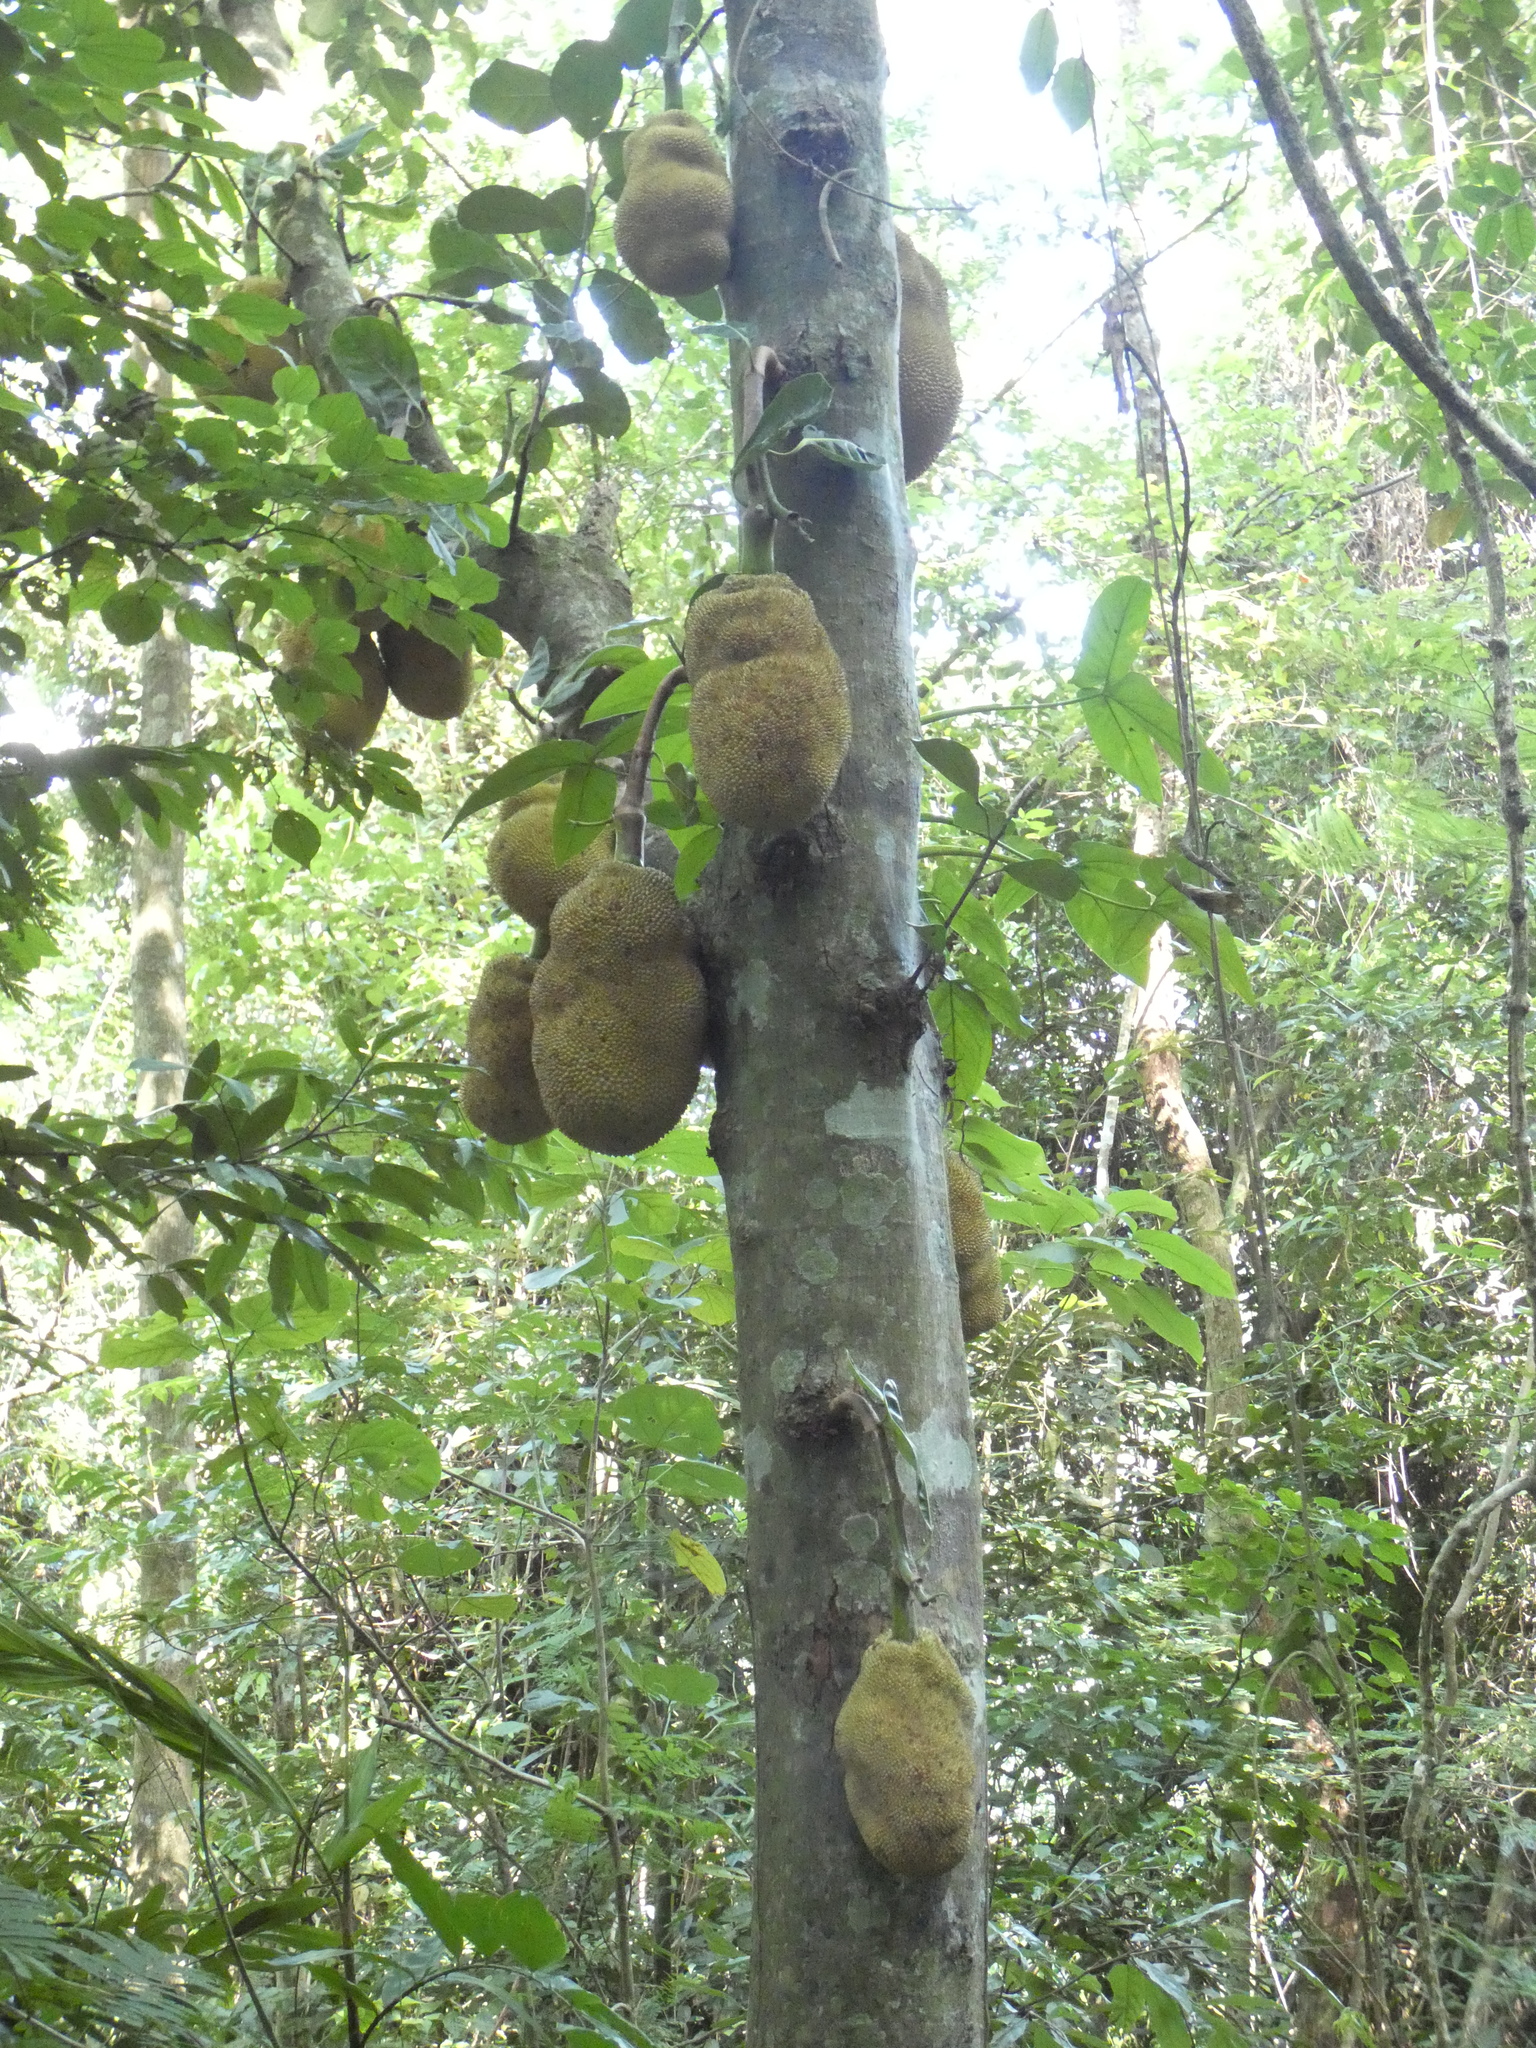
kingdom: Plantae
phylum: Tracheophyta
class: Magnoliopsida
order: Rosales
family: Moraceae
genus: Artocarpus
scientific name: Artocarpus heterophyllus
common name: Jackfruit
